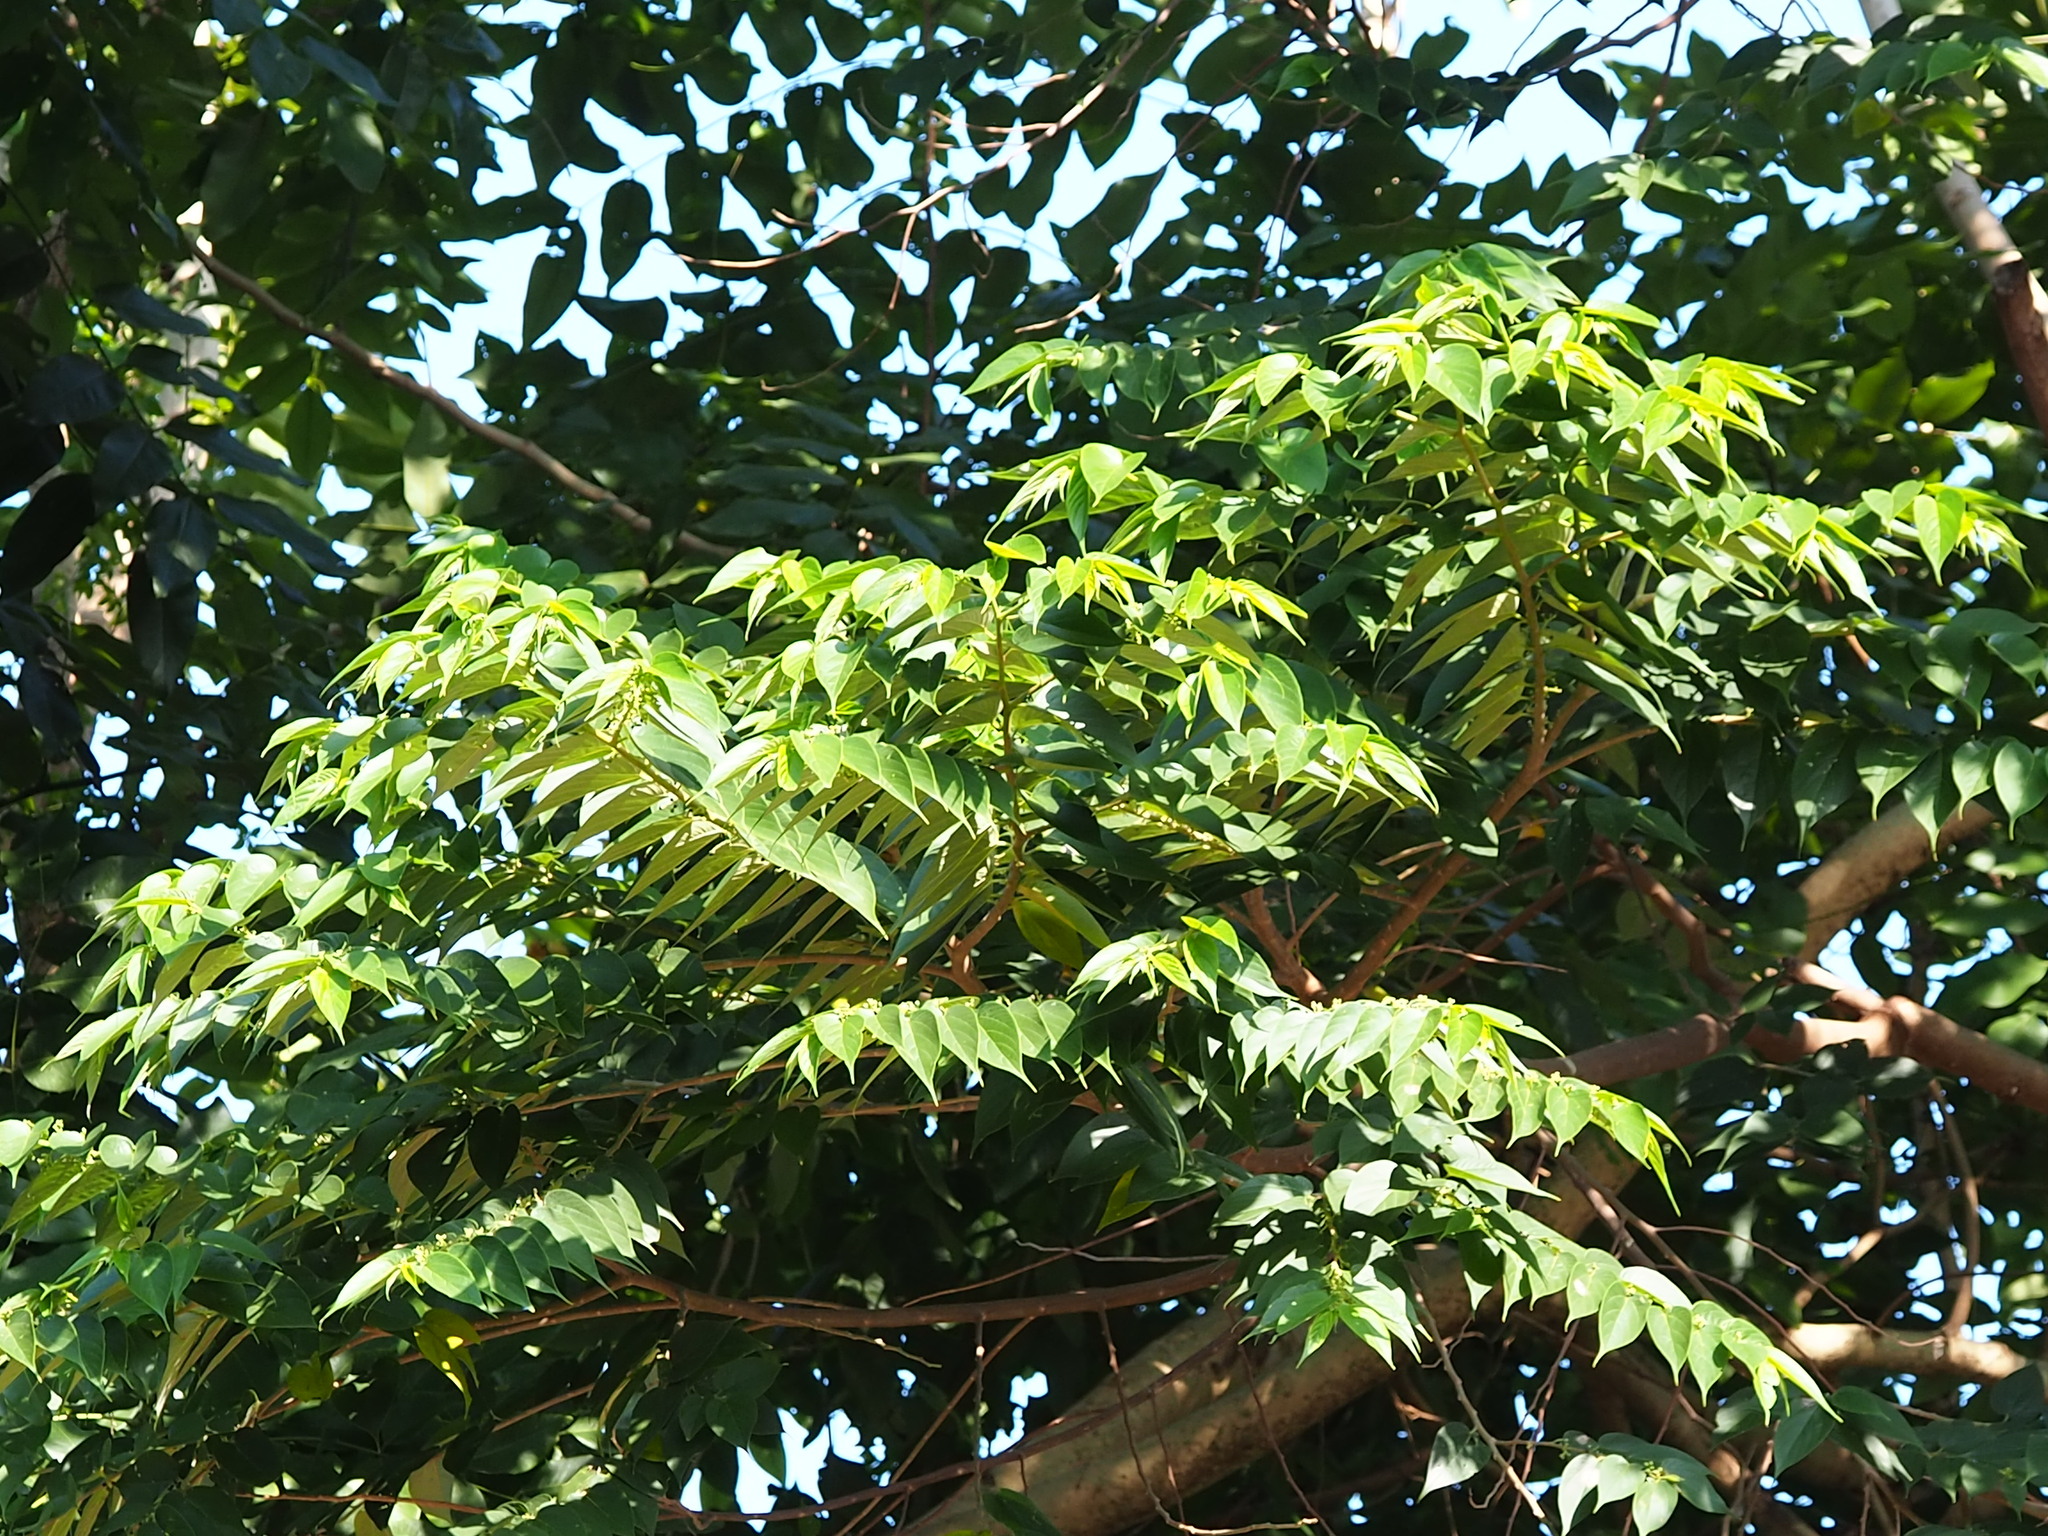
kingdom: Plantae
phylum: Tracheophyta
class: Magnoliopsida
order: Rosales
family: Cannabaceae
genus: Trema
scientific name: Trema orientale
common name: Indian charcoal tree
